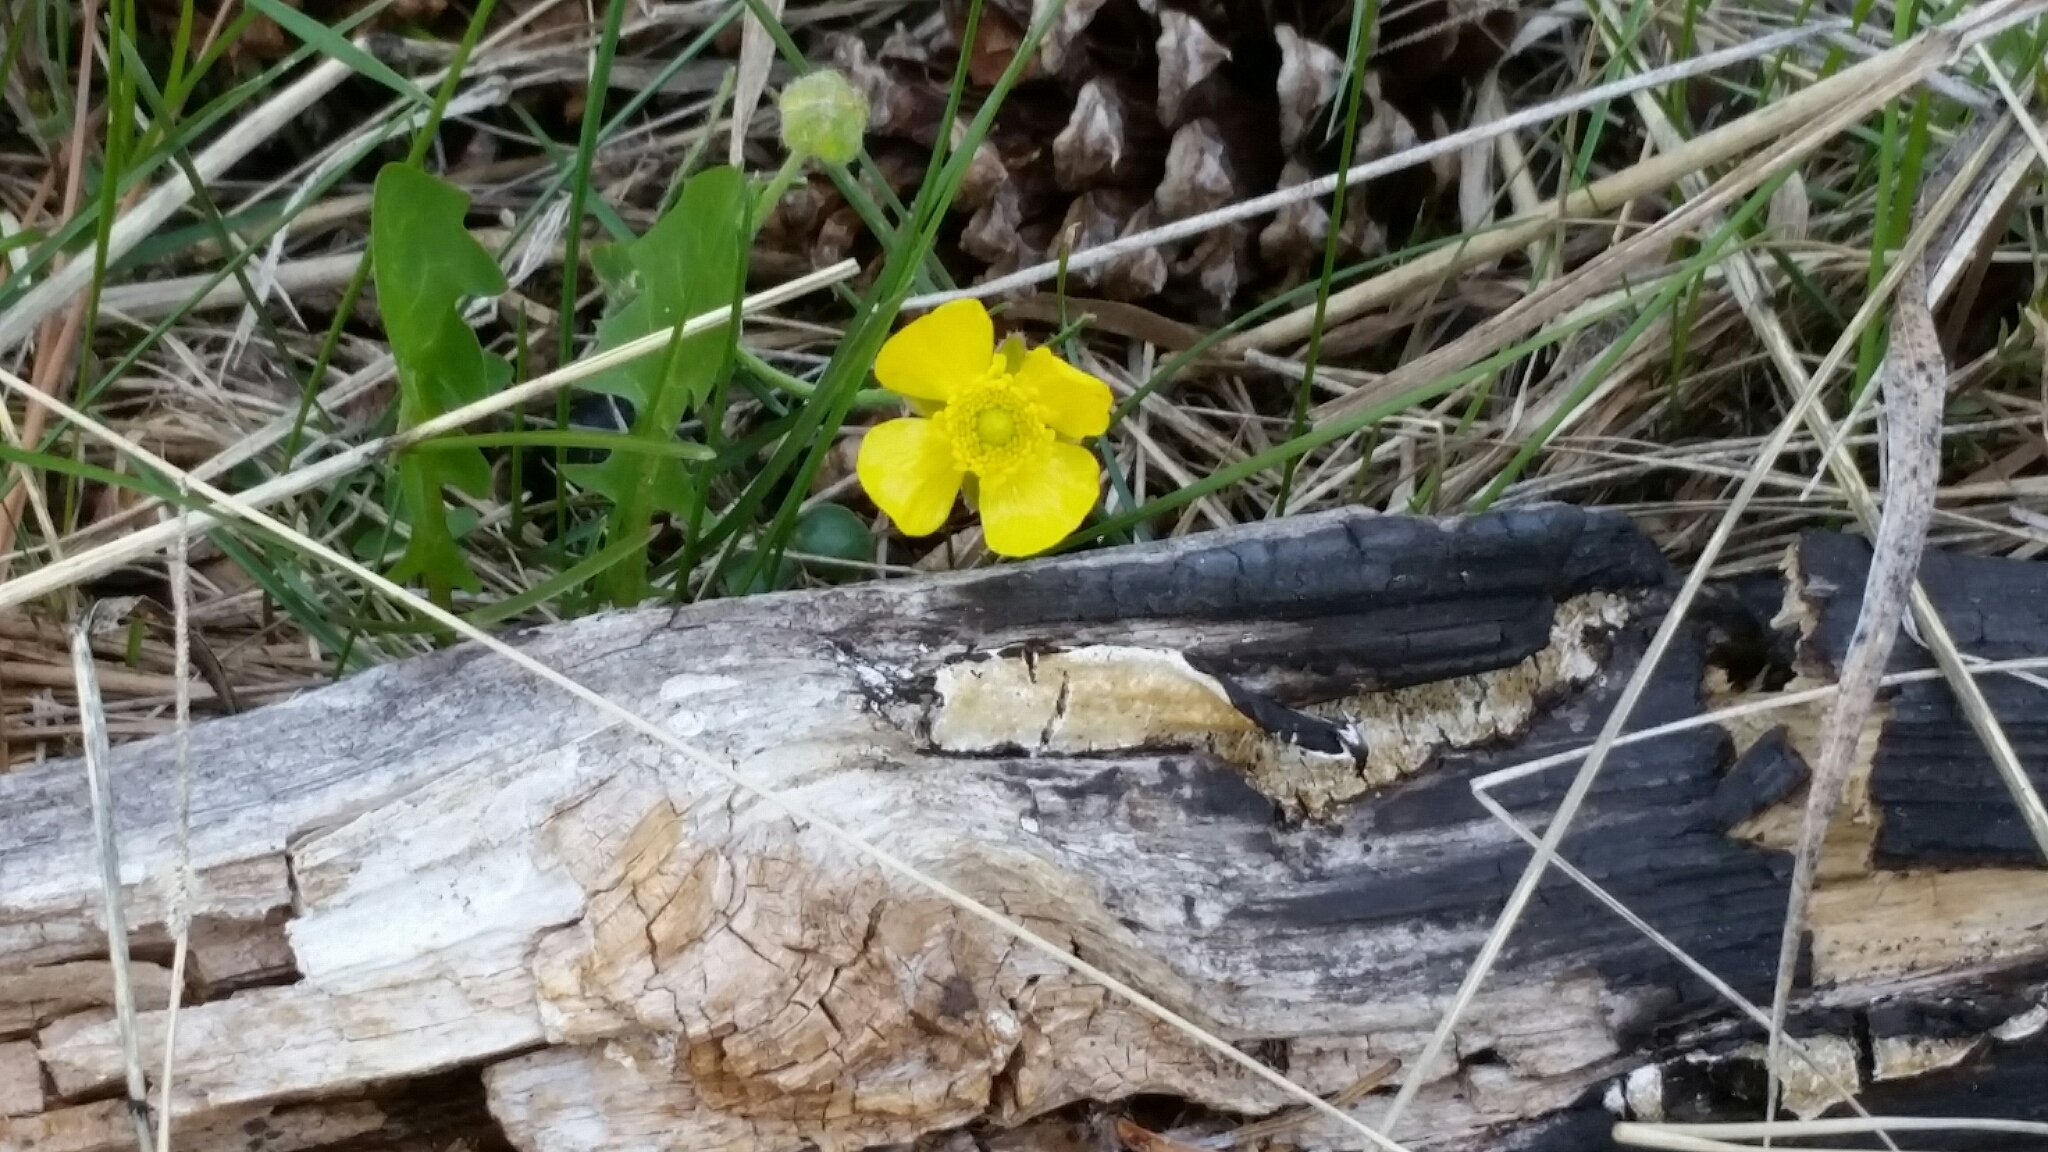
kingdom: Plantae
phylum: Tracheophyta
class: Magnoliopsida
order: Ranunculales
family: Ranunculaceae
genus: Ranunculus
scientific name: Ranunculus cardiophyllus
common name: Heart-leaved buttercup
